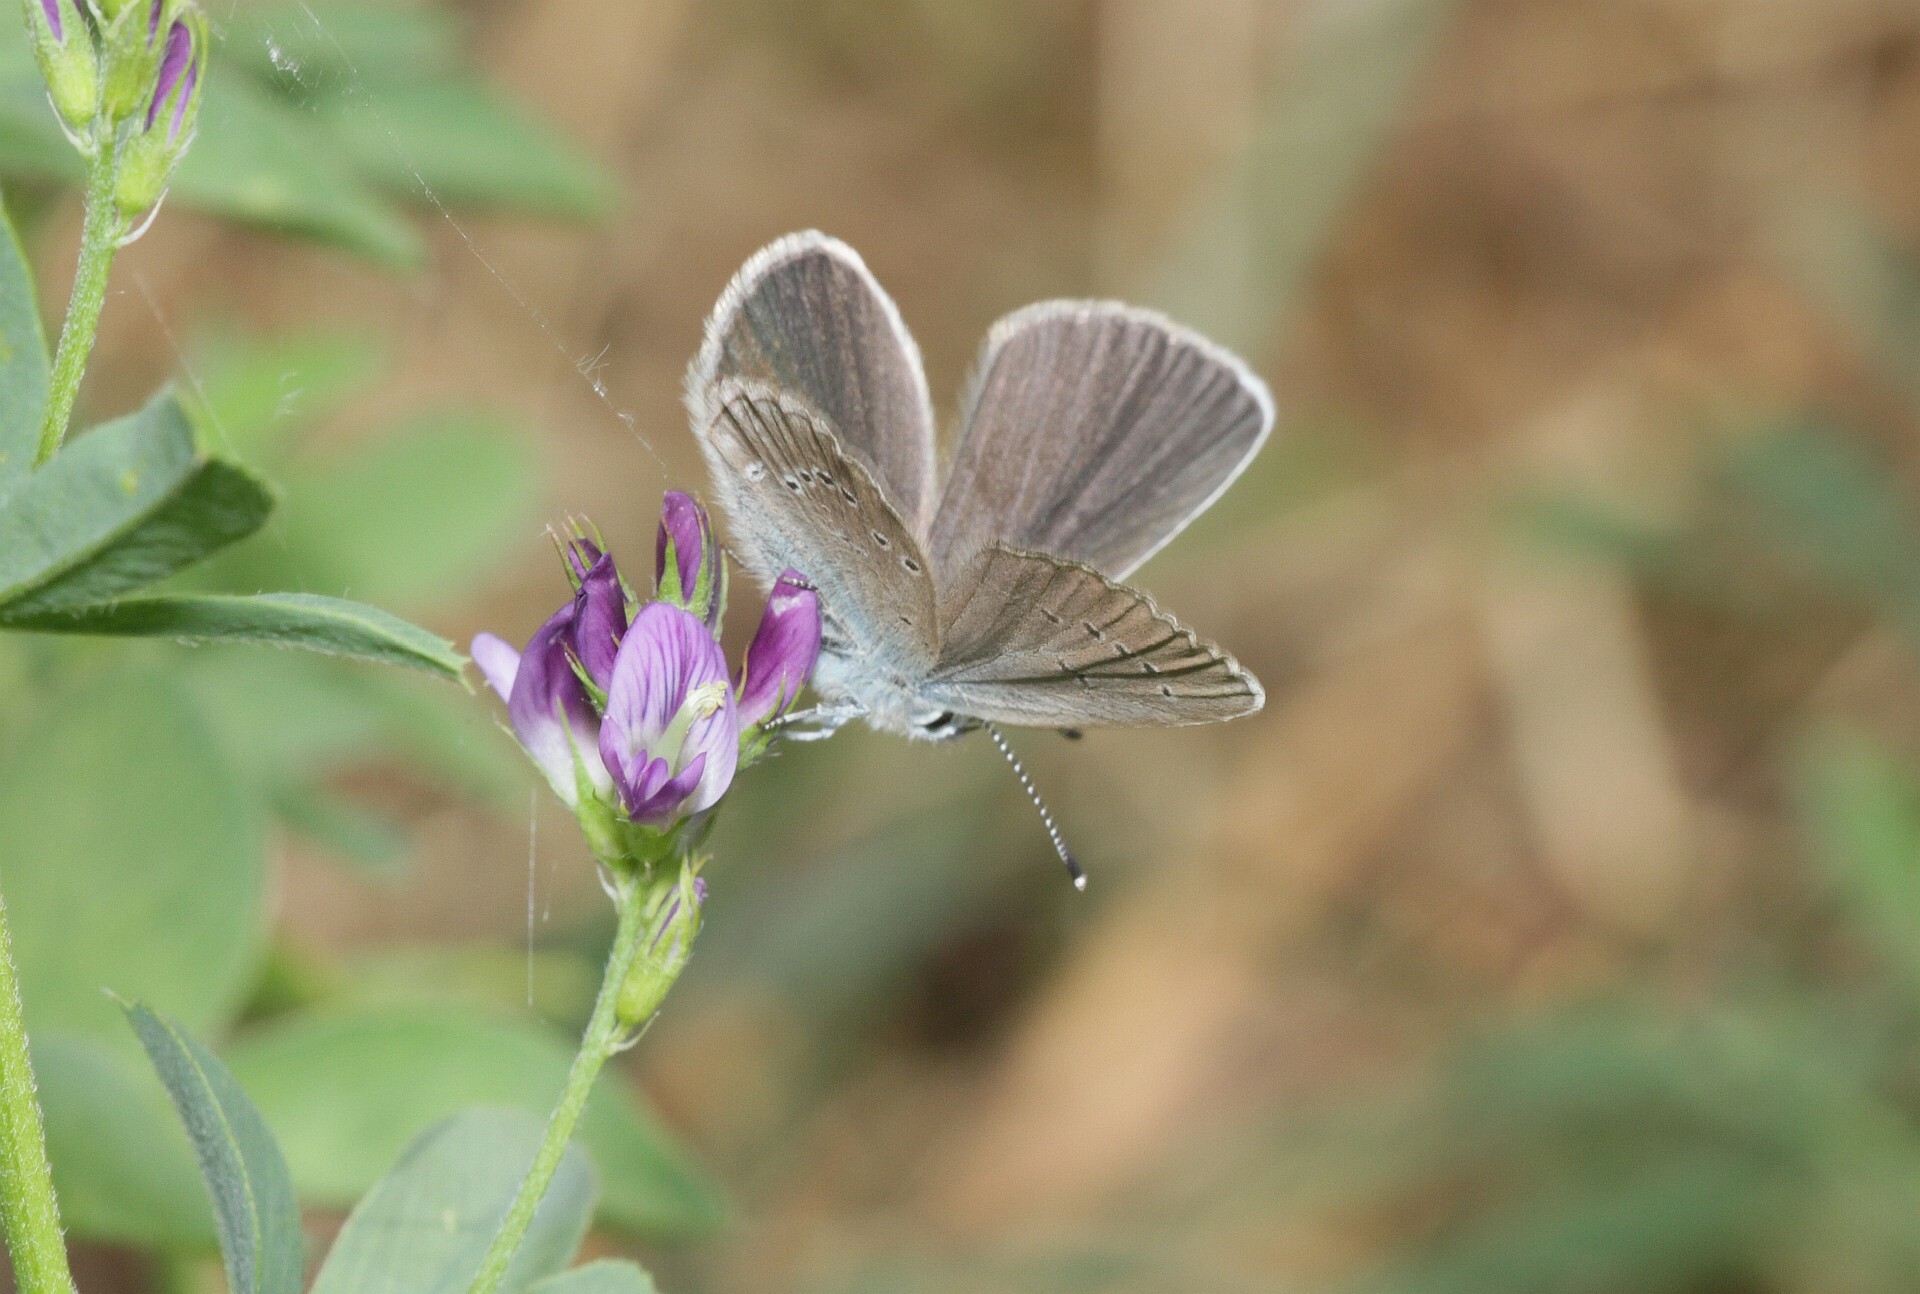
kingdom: Animalia
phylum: Arthropoda
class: Insecta
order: Lepidoptera
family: Lycaenidae
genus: Cyaniris
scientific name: Cyaniris semiargus
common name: Mazarine blue
